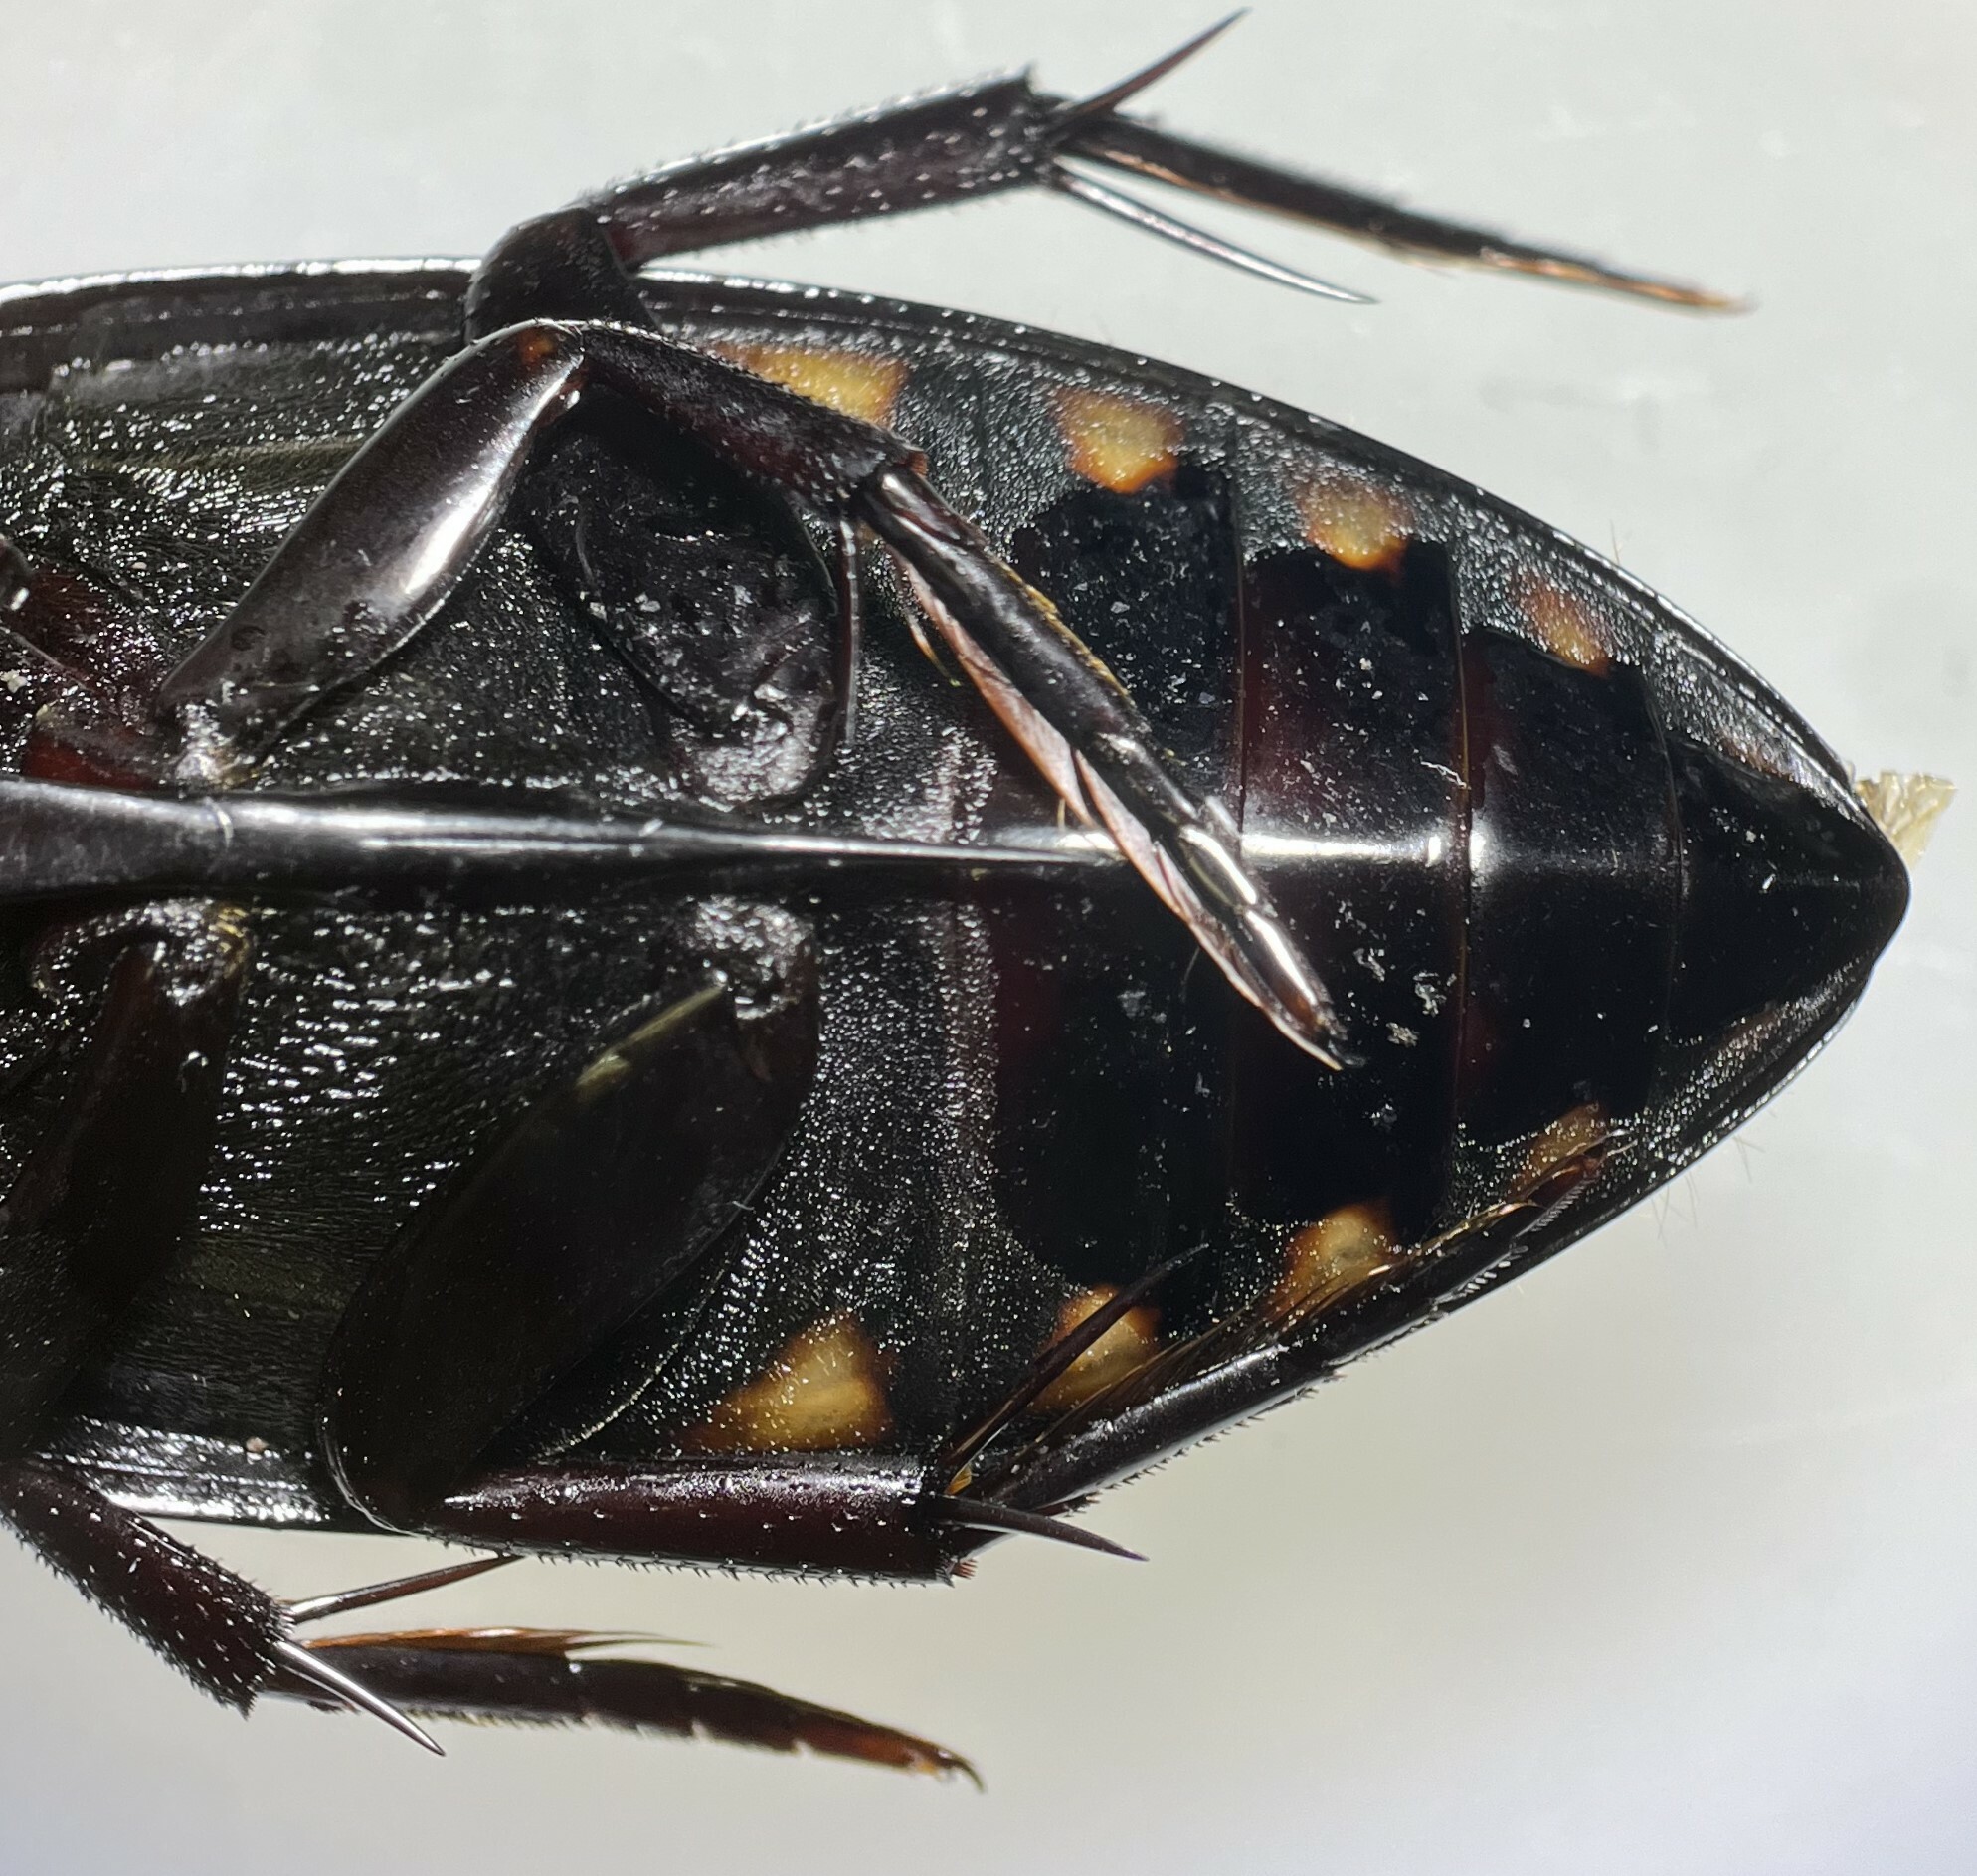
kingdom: Animalia
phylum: Arthropoda
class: Insecta
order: Coleoptera
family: Hydrophilidae
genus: Hydrophilus
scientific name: Hydrophilus triangularis
